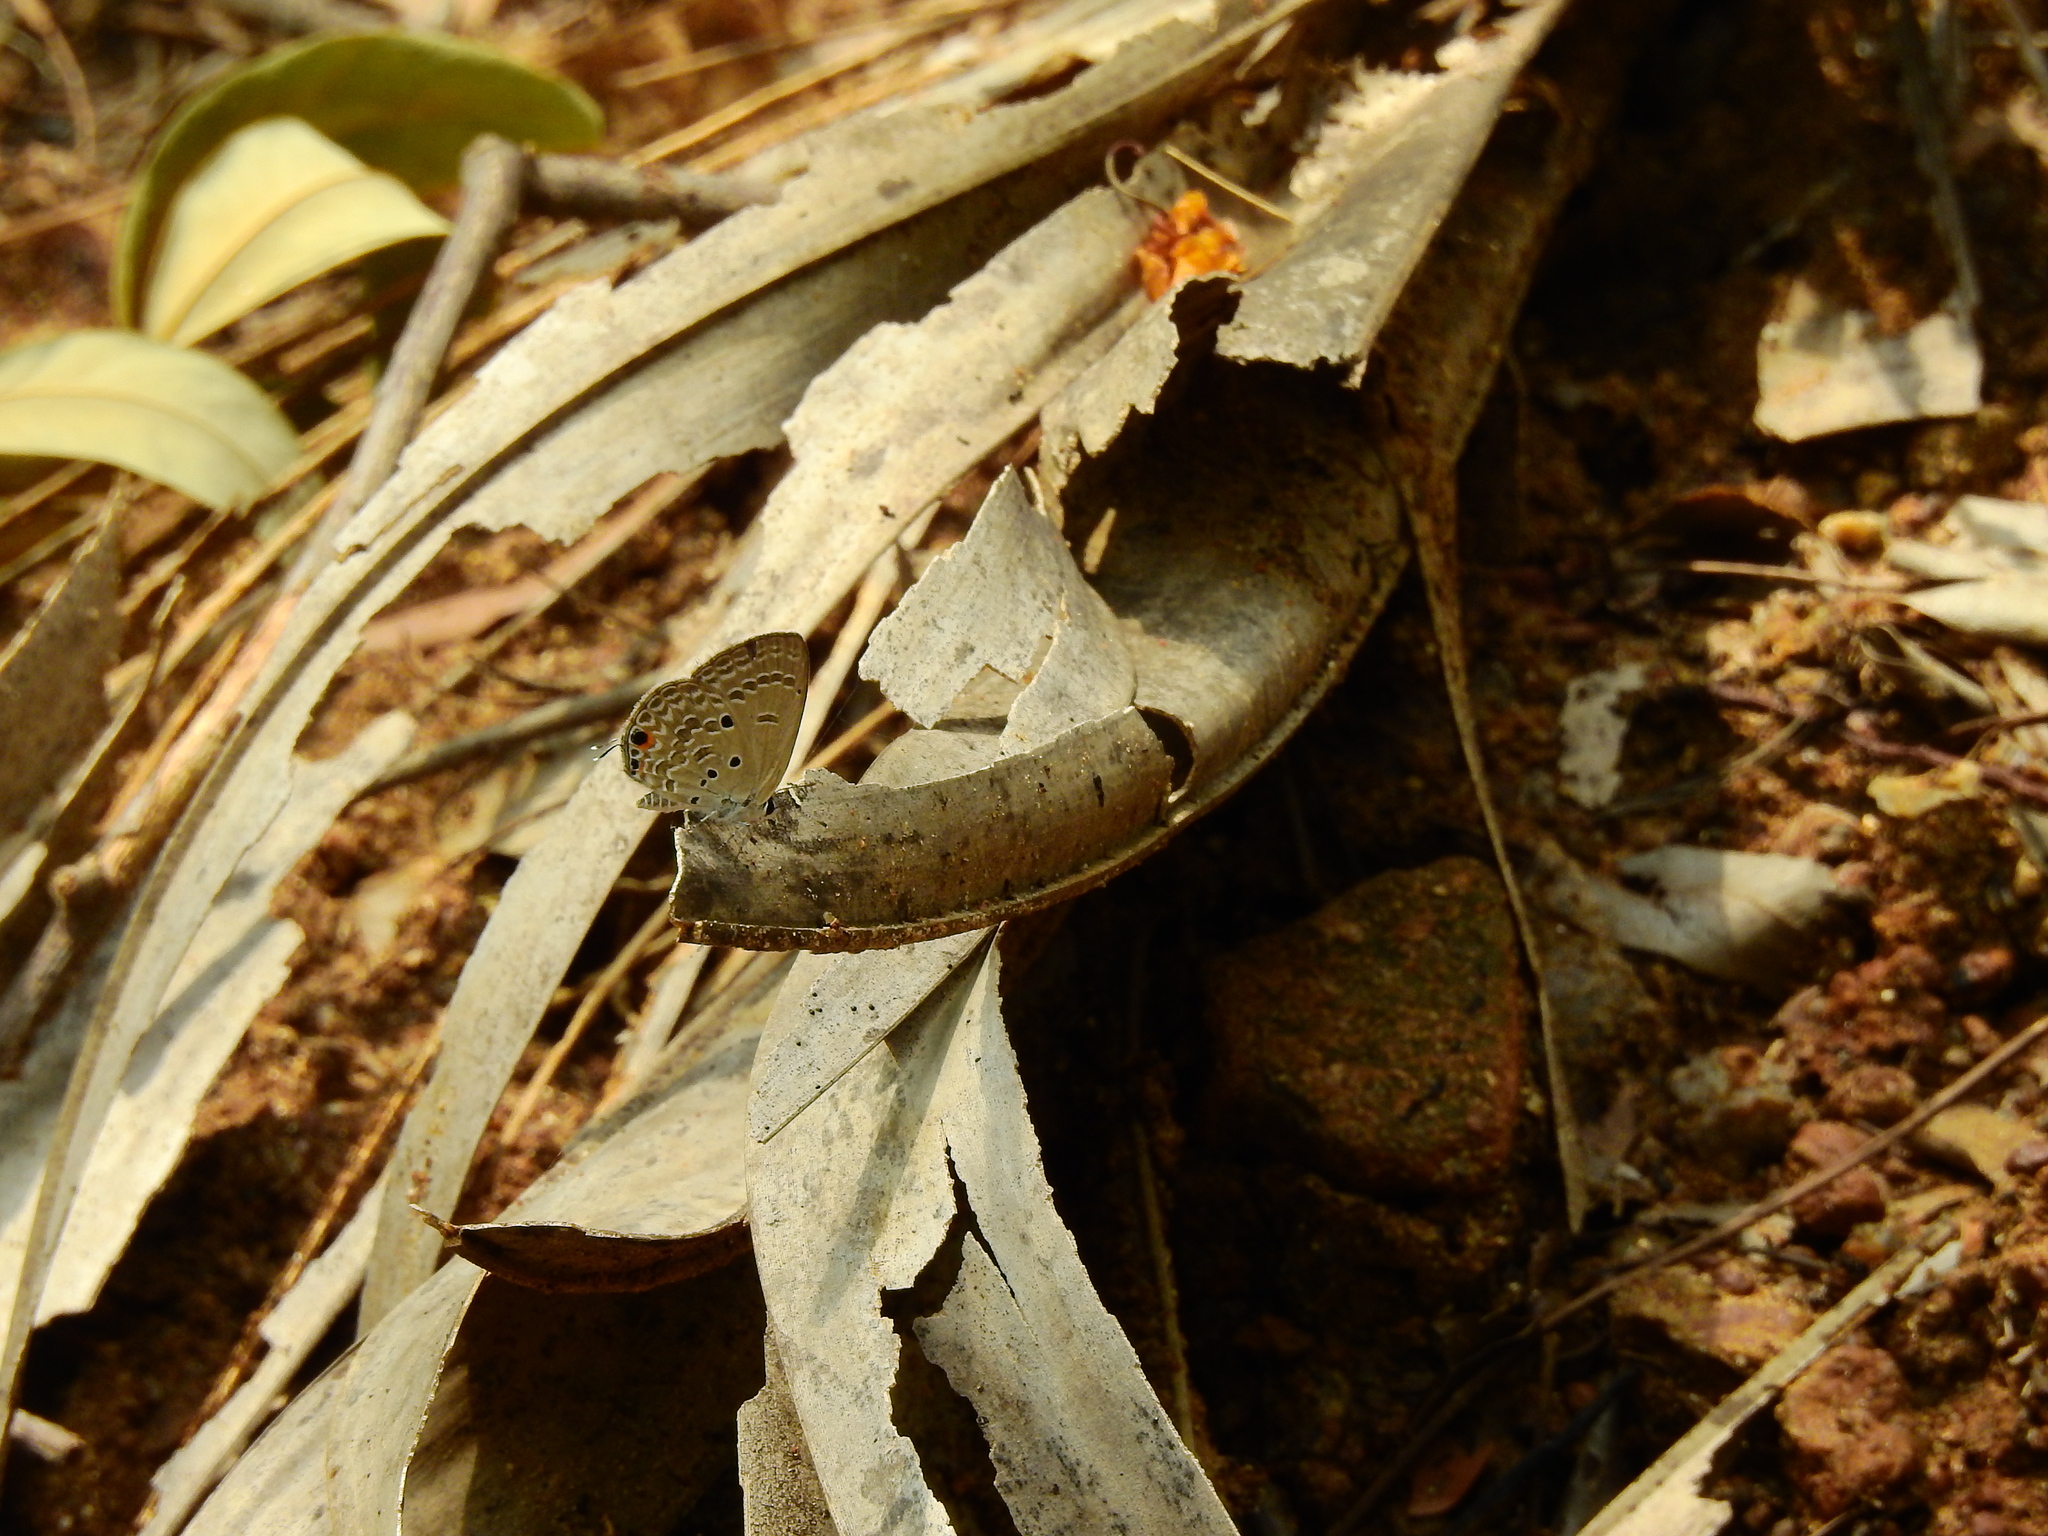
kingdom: Animalia
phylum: Arthropoda
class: Insecta
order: Lepidoptera
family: Lycaenidae
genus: Luthrodes
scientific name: Luthrodes pandava
